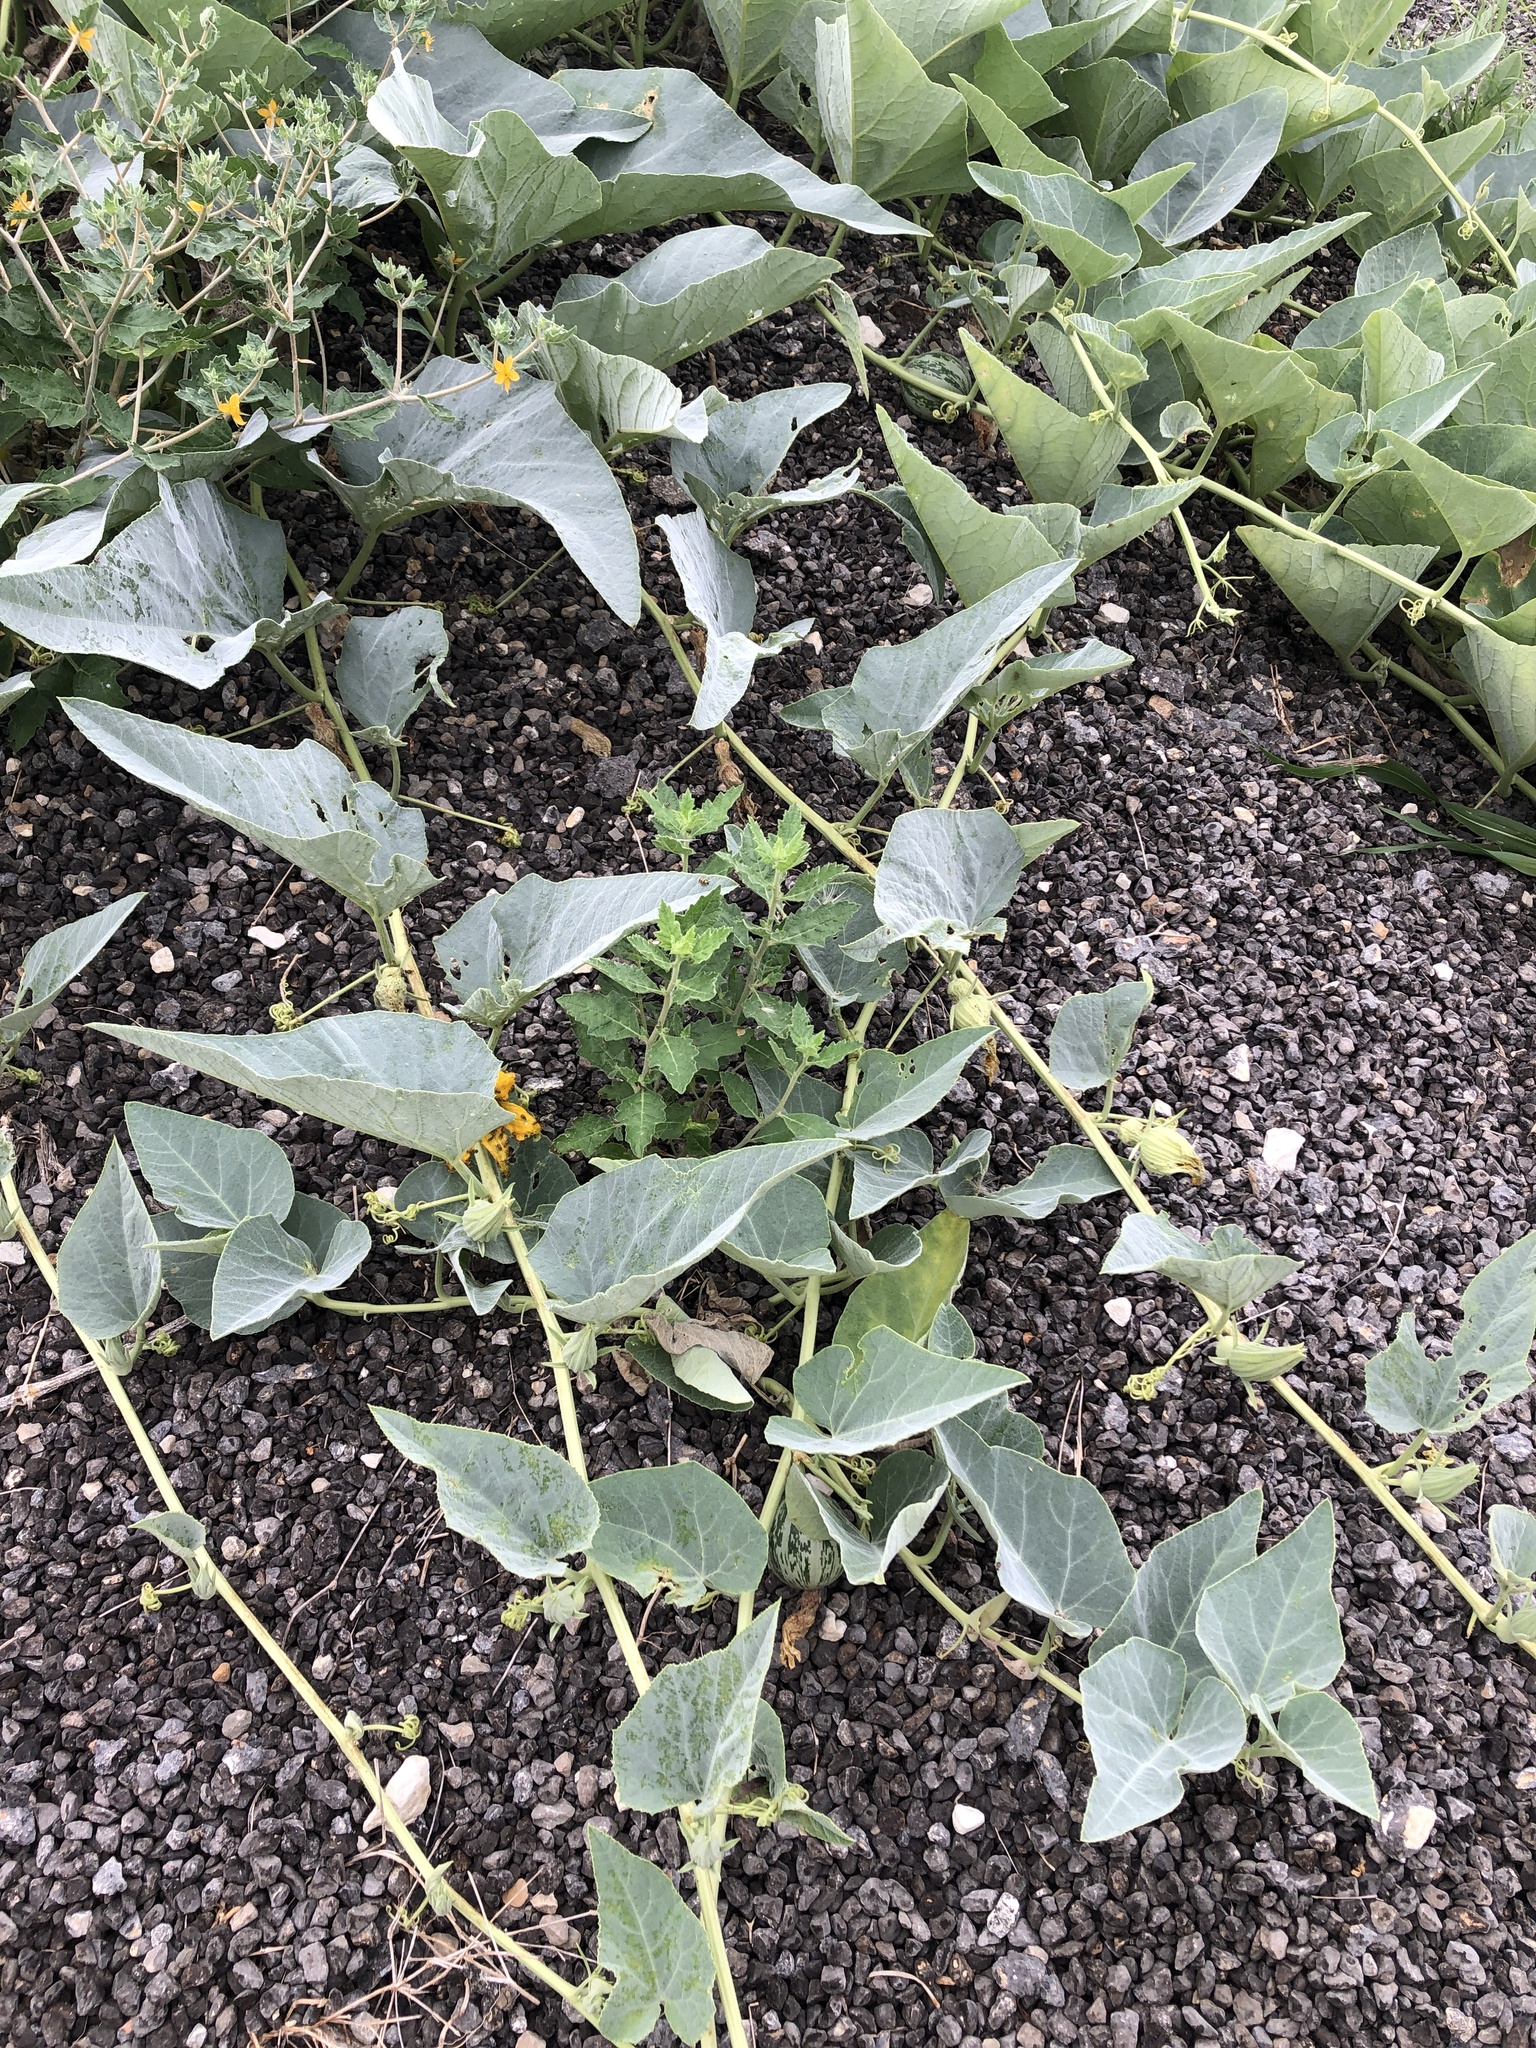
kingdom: Plantae
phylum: Tracheophyta
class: Magnoliopsida
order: Cucurbitales
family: Cucurbitaceae
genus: Cucurbita
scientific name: Cucurbita foetidissima
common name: Buffalo gourd
